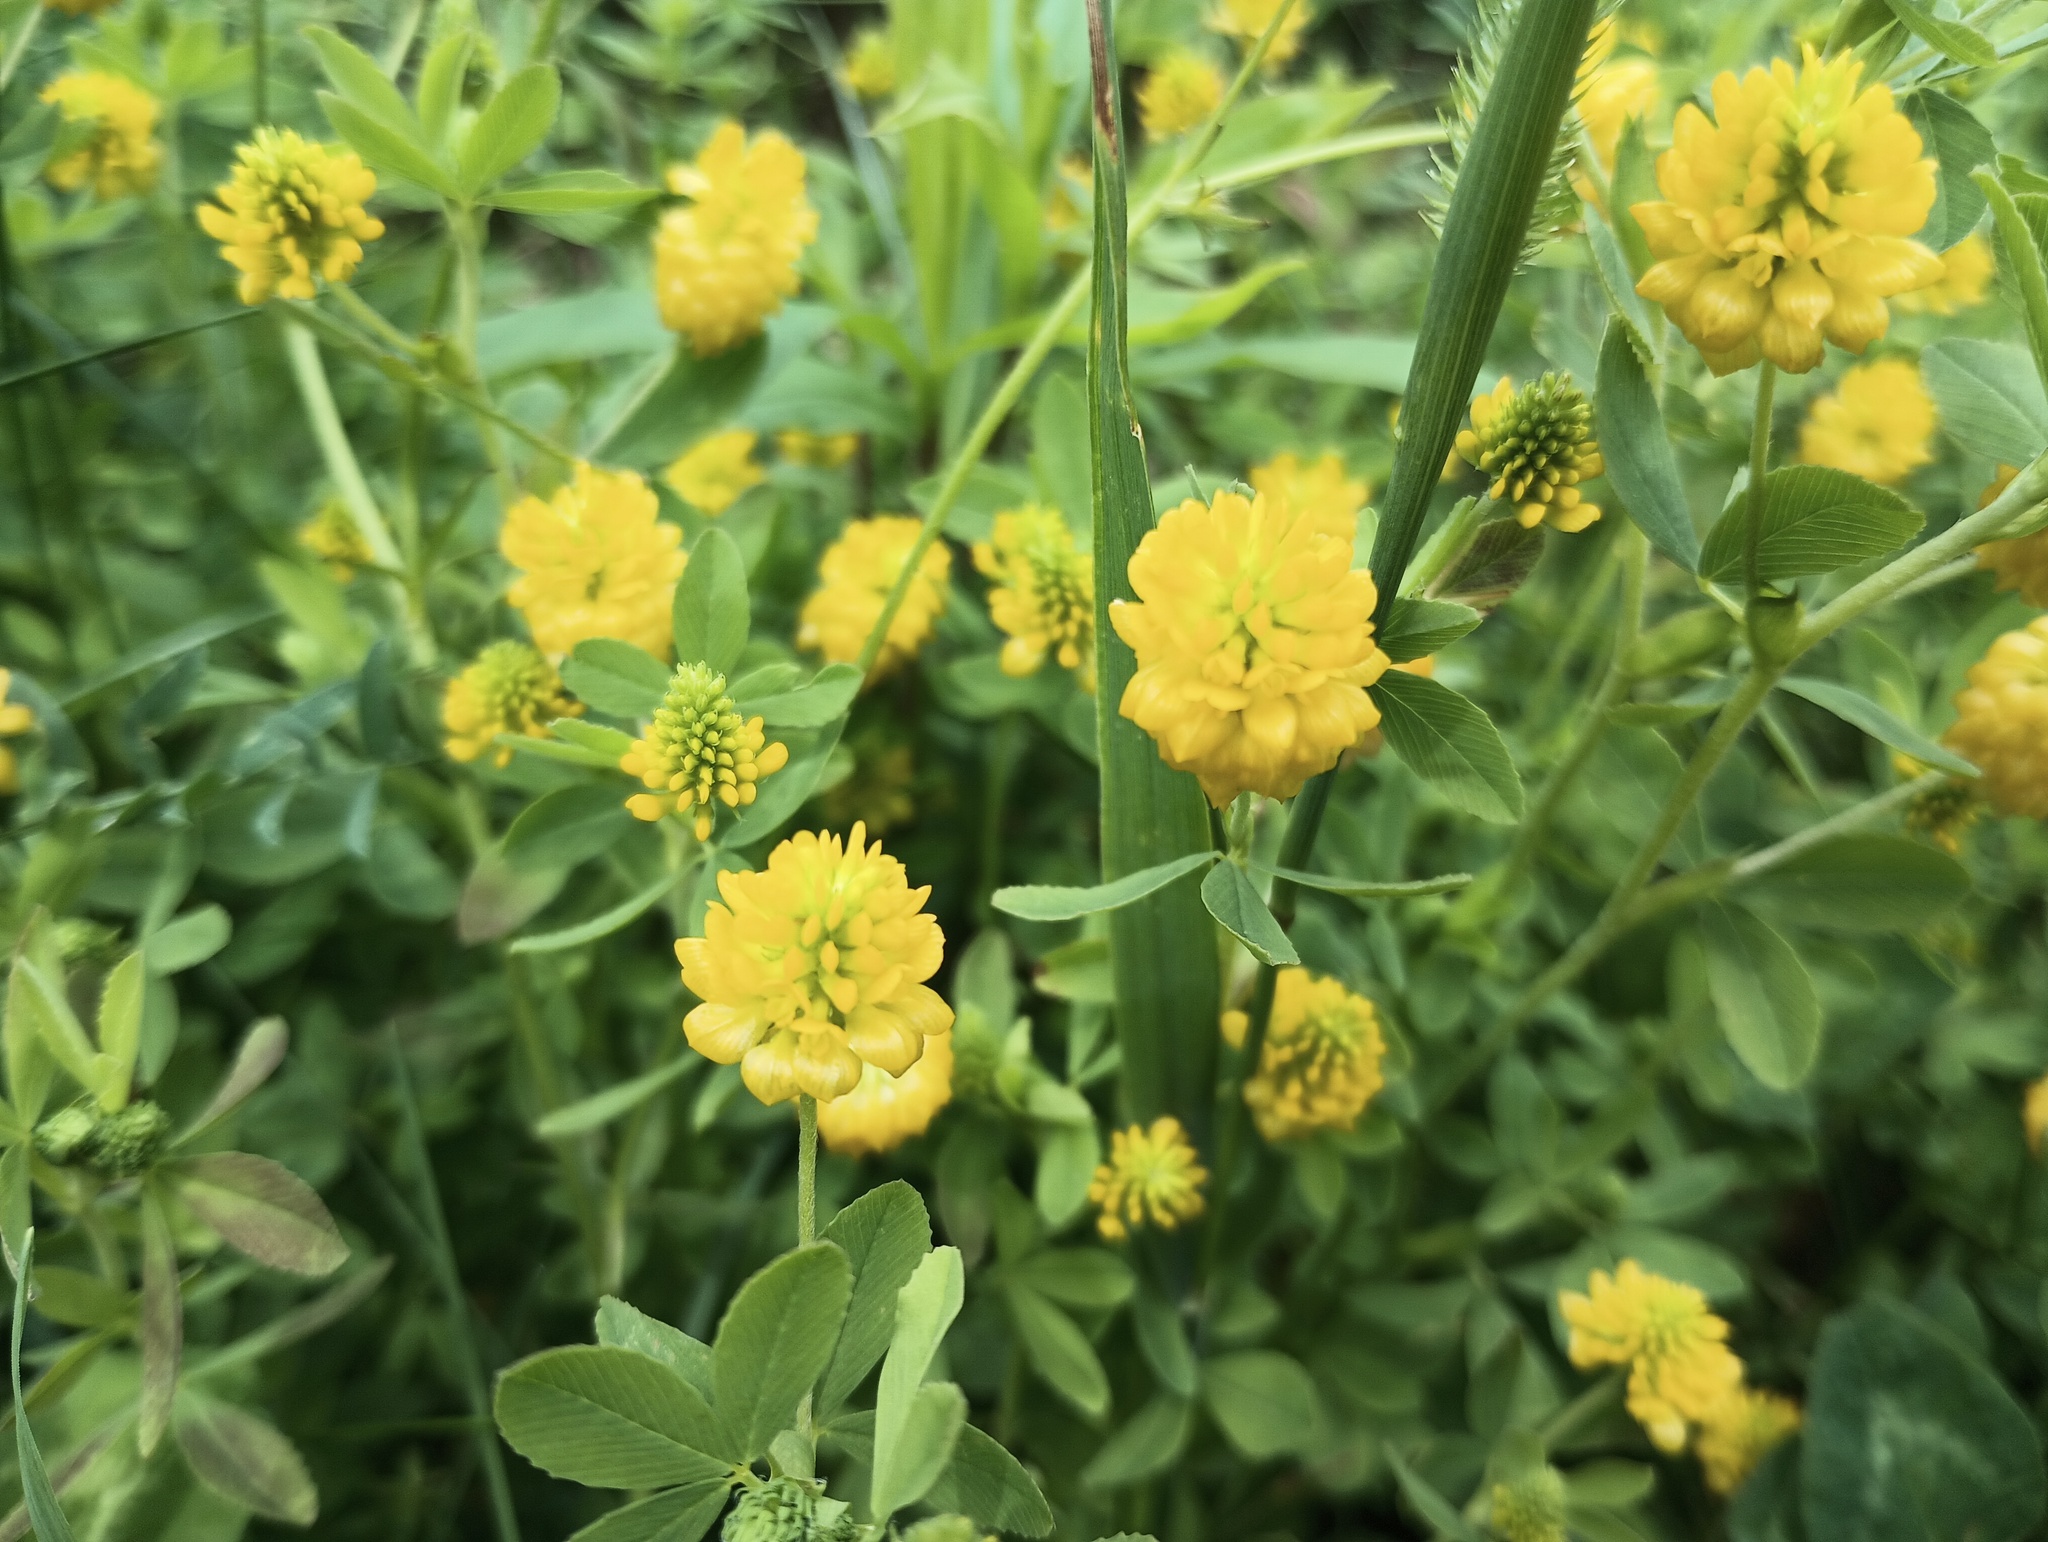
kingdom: Plantae
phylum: Tracheophyta
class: Magnoliopsida
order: Fabales
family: Fabaceae
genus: Trifolium
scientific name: Trifolium aureum
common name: Golden clover
